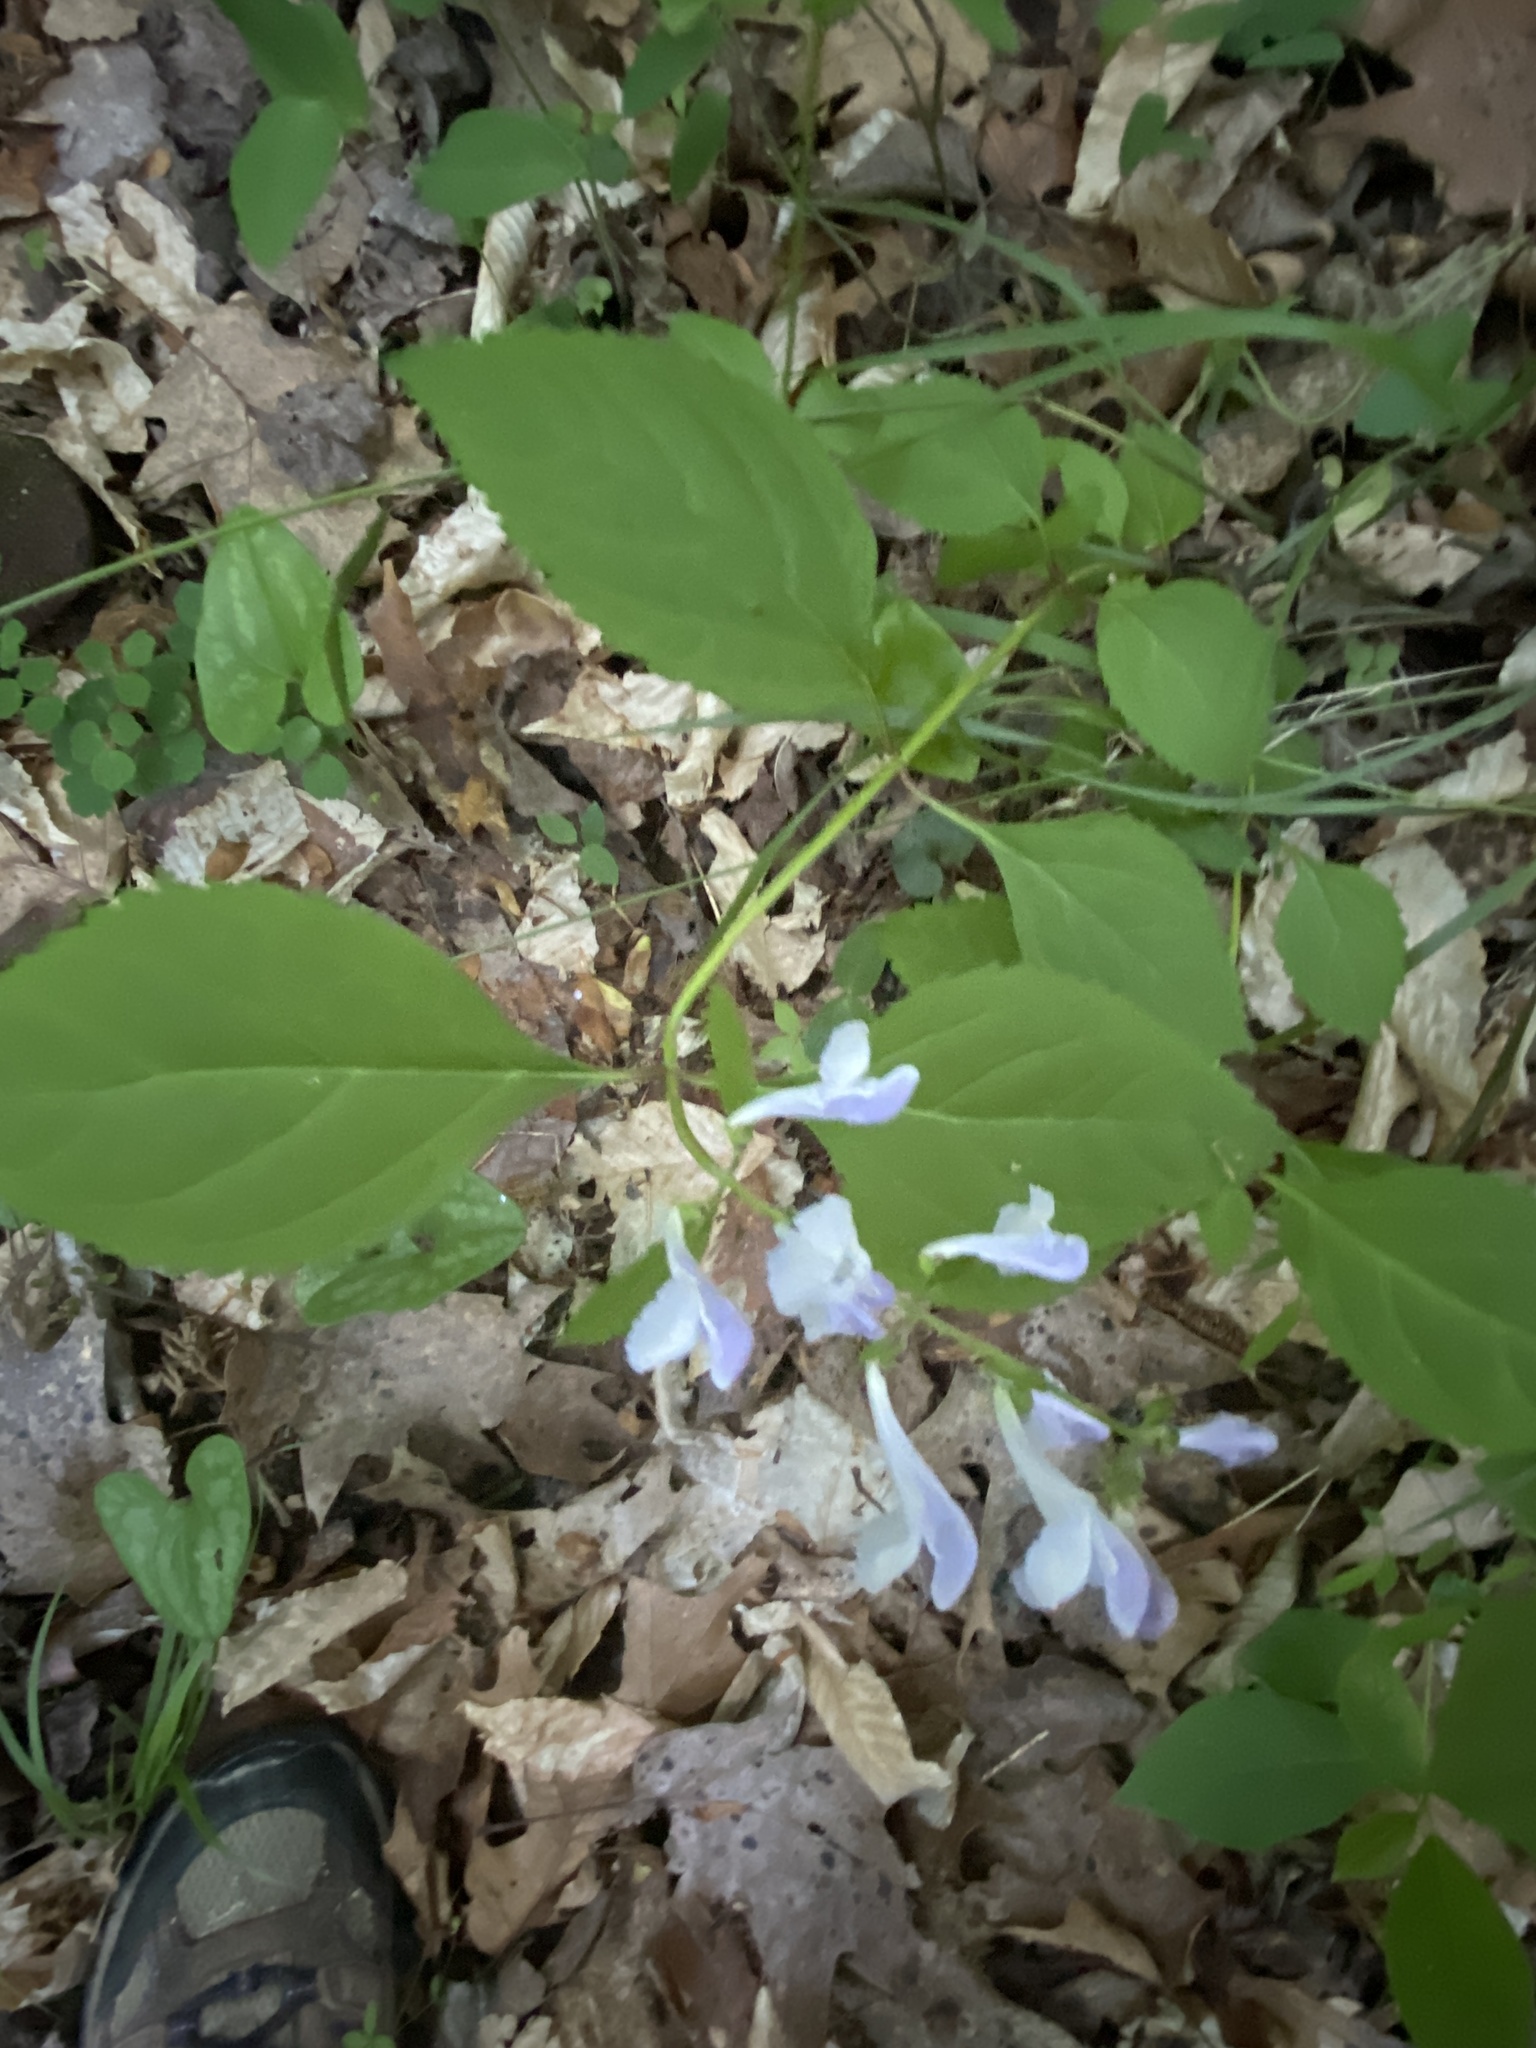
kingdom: Plantae
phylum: Tracheophyta
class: Magnoliopsida
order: Lamiales
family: Lamiaceae
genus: Scutellaria
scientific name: Scutellaria serrata
